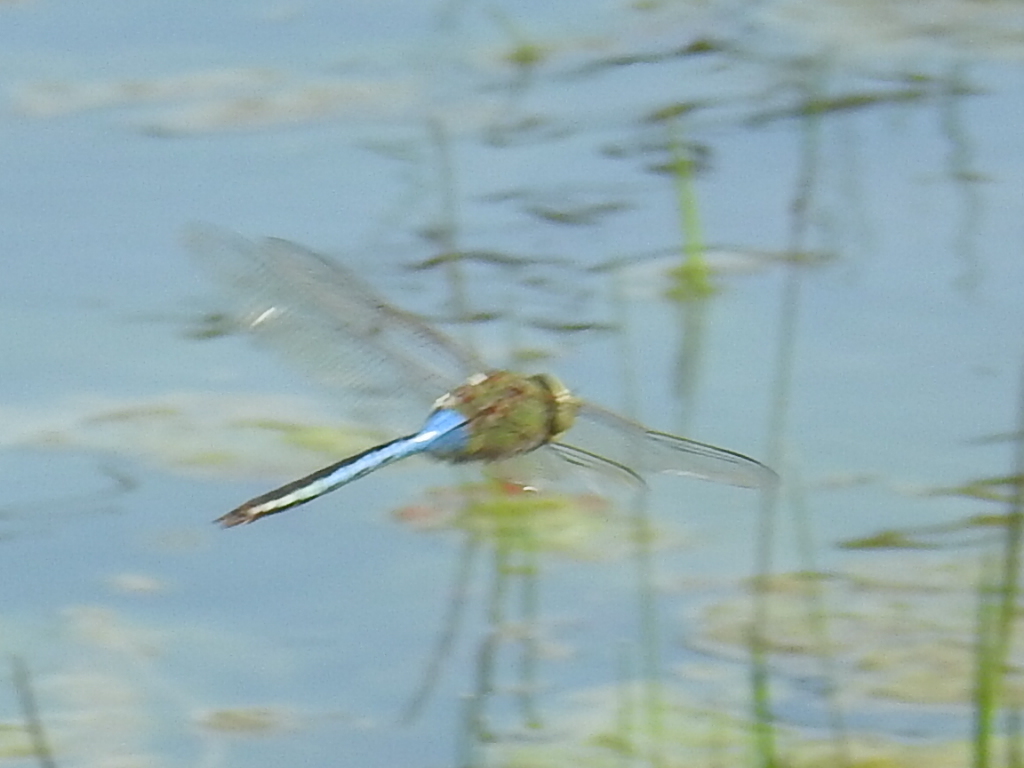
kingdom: Animalia
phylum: Arthropoda
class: Insecta
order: Odonata
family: Aeshnidae
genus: Anax
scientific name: Anax junius
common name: Common green darner
